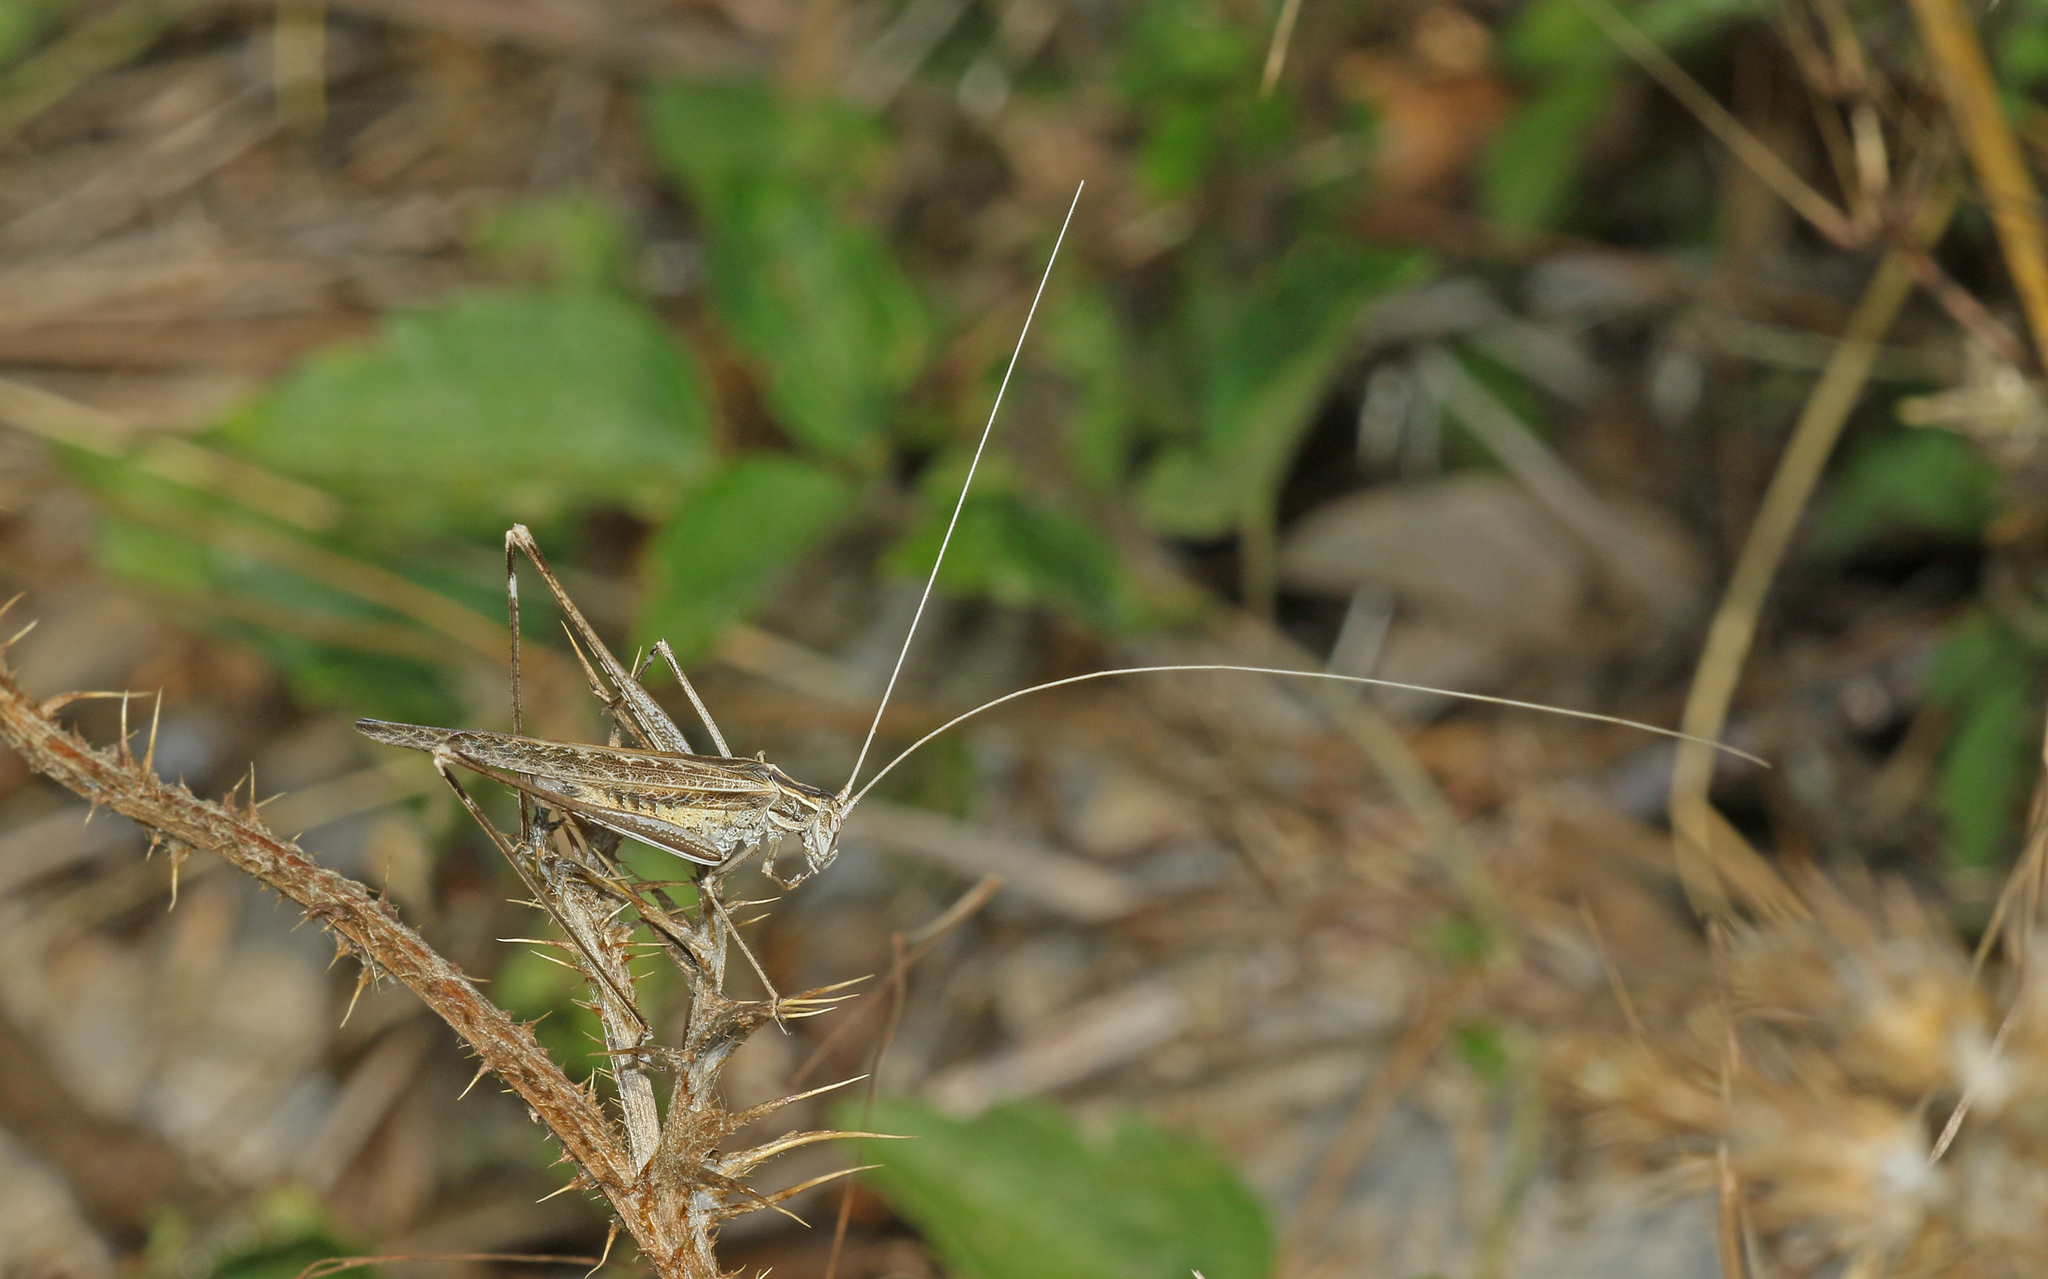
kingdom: Animalia
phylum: Arthropoda
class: Insecta
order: Orthoptera
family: Tettigoniidae
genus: Tylopsis
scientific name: Tylopsis lilifolia
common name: Lily bush-cricket
